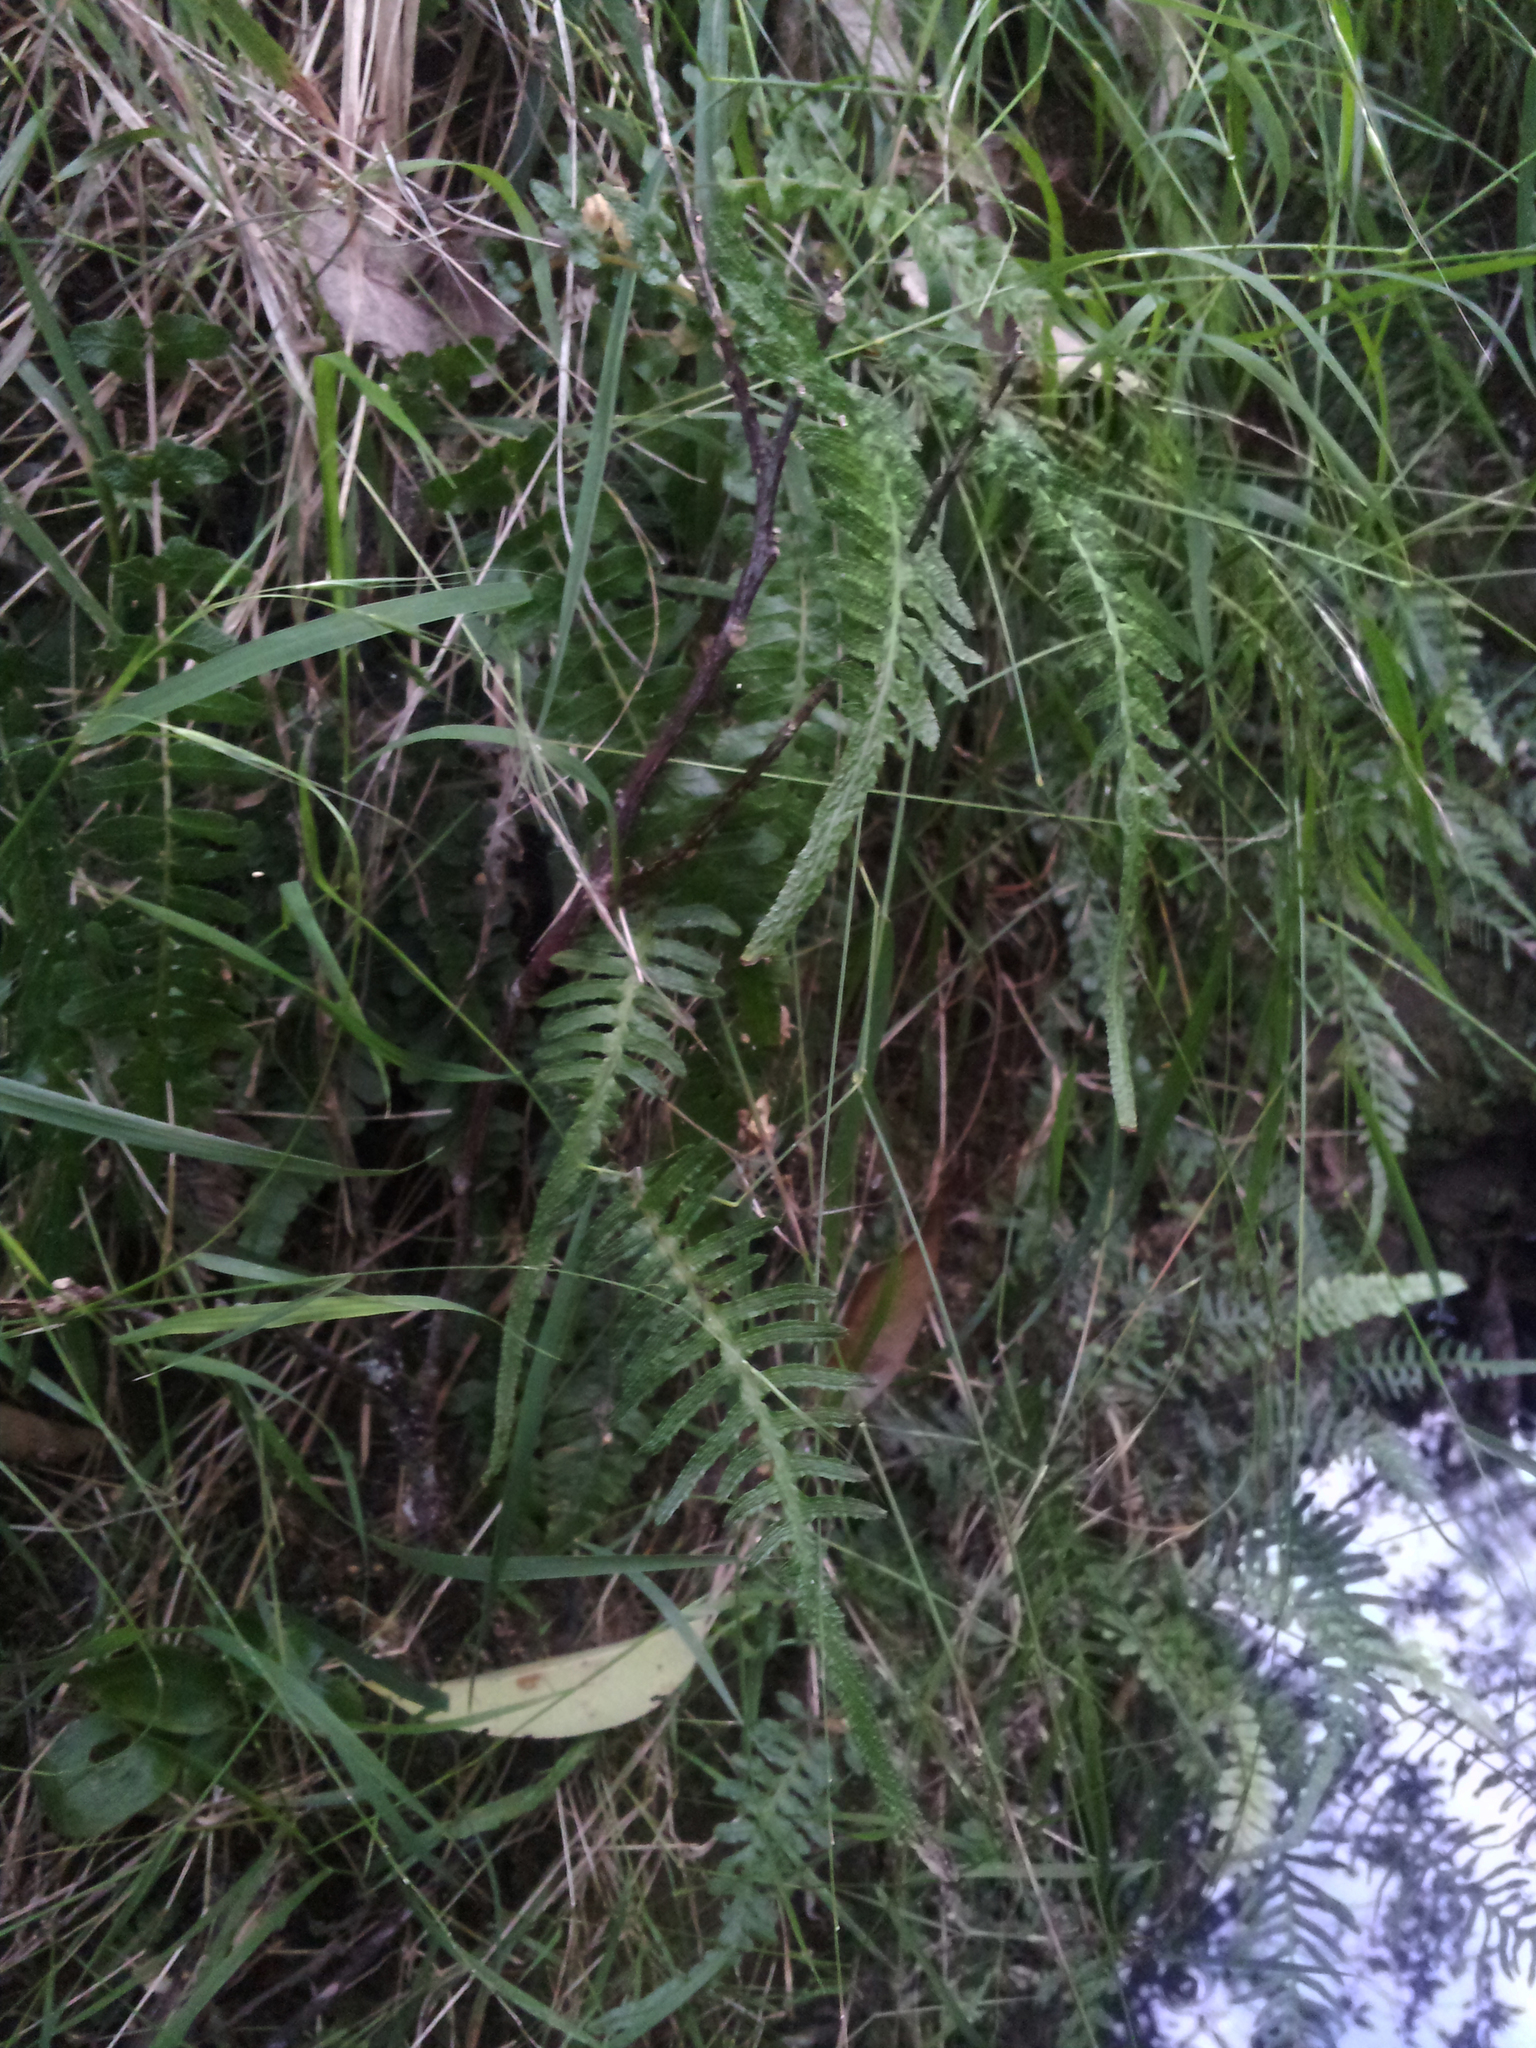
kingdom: Plantae
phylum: Tracheophyta
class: Polypodiopsida
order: Polypodiales
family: Blechnaceae
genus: Doodia
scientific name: Doodia squarrosa
